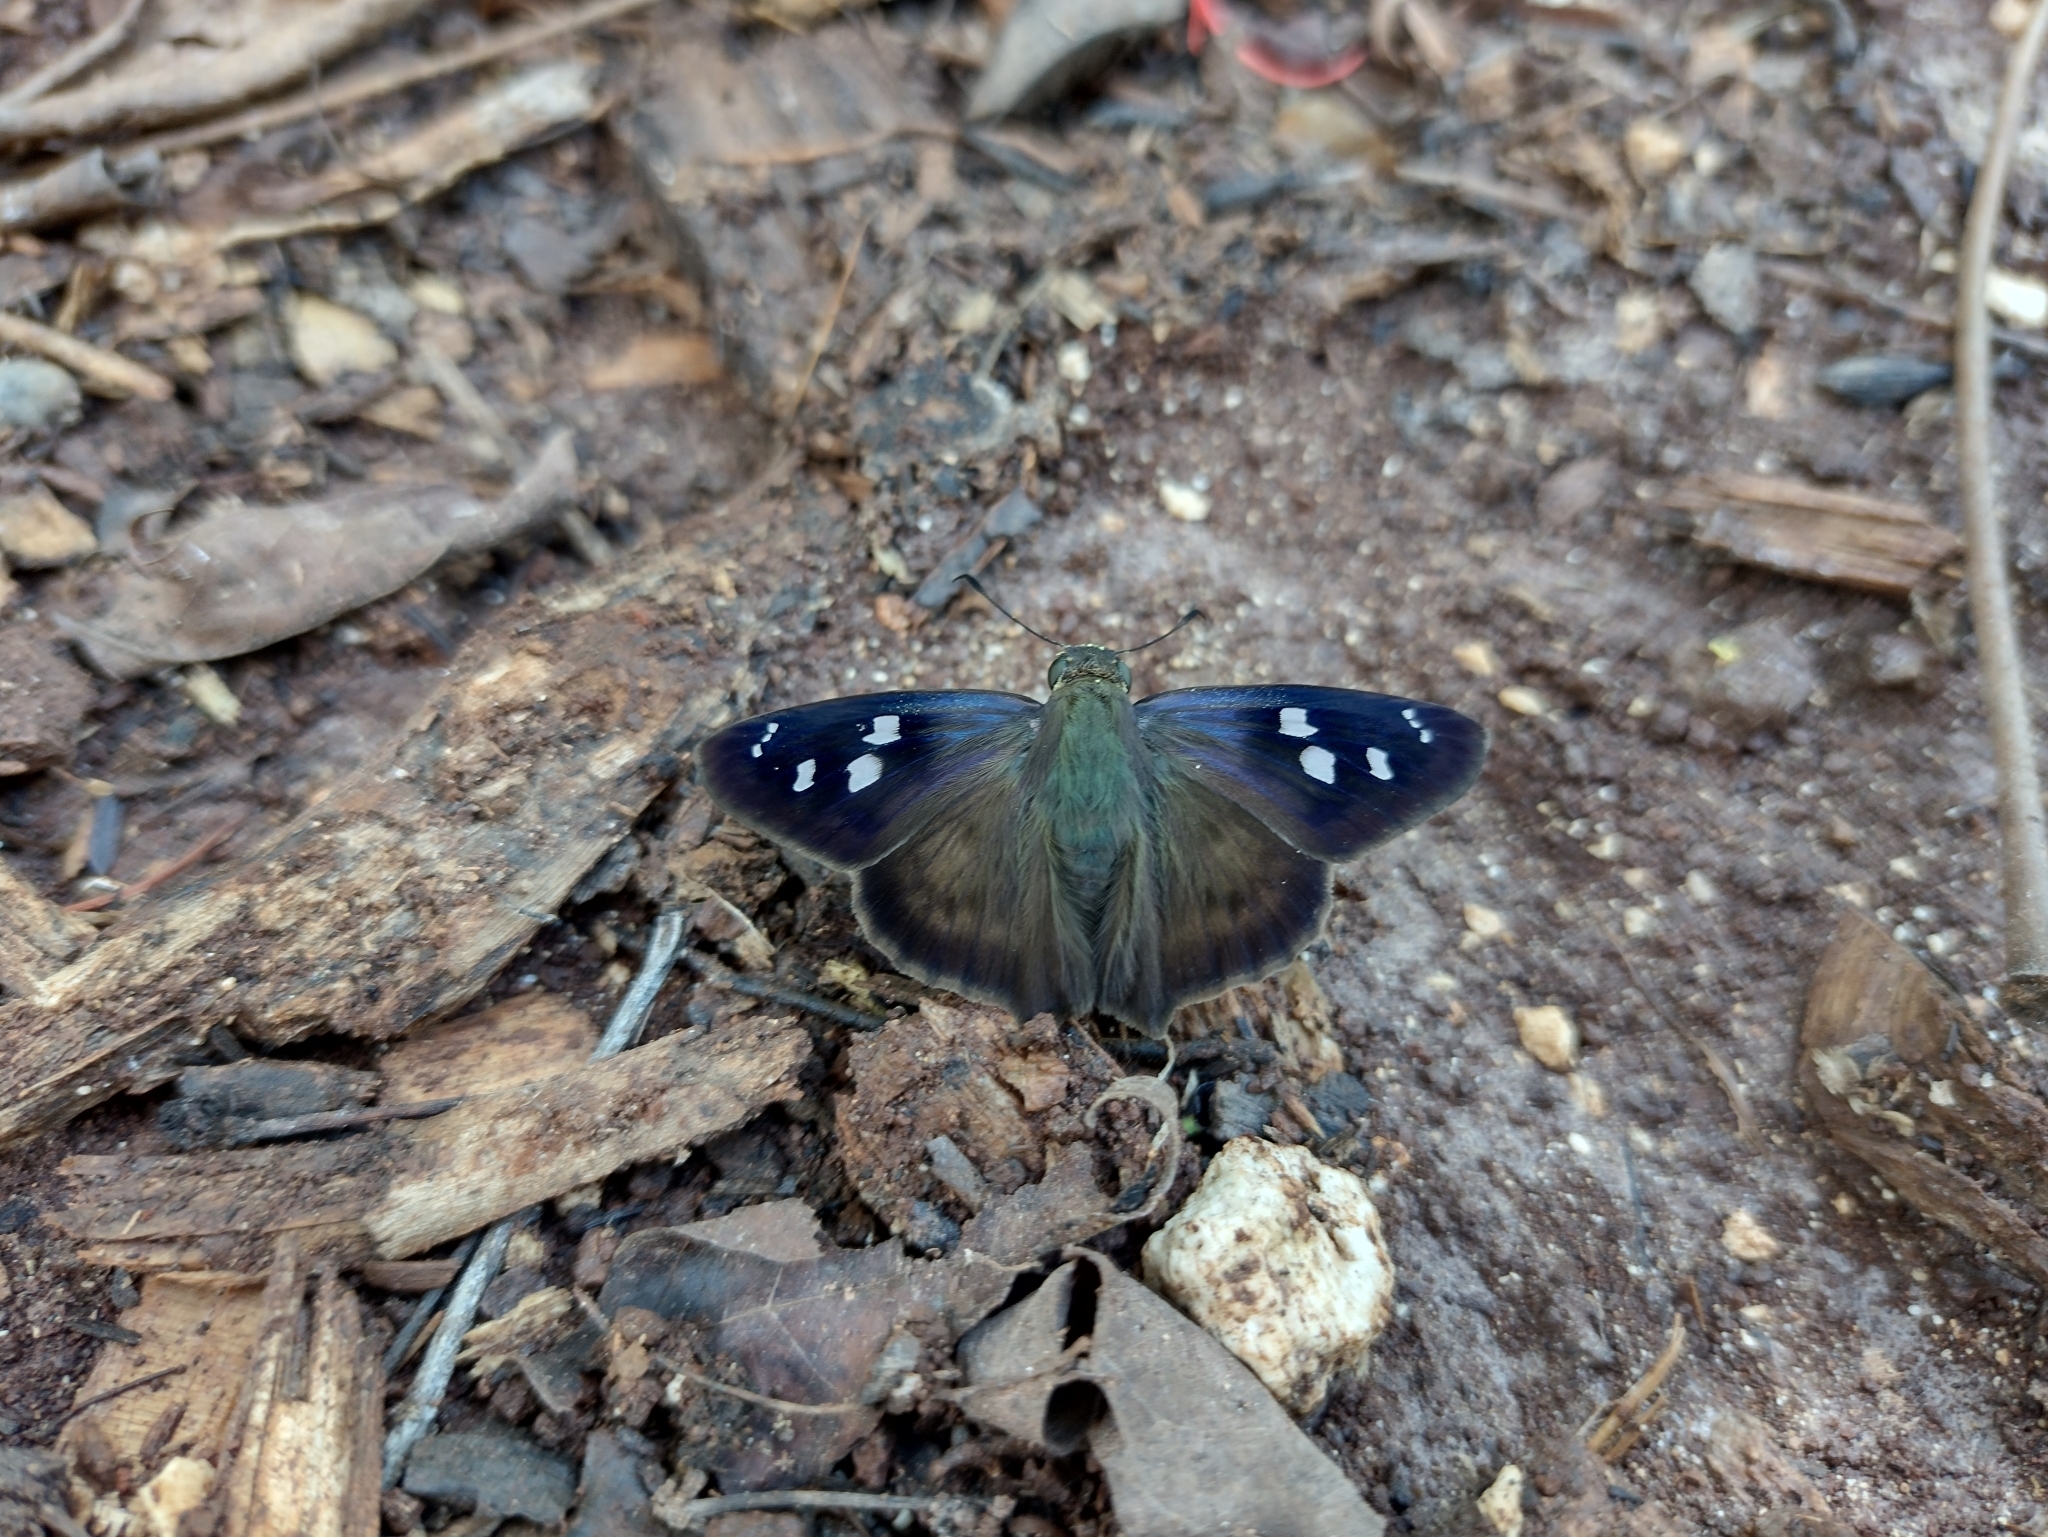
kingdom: Animalia
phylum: Arthropoda
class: Insecta
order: Lepidoptera
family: Hesperiidae
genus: Polygonus
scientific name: Polygonus leo
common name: Hammoch skipper
